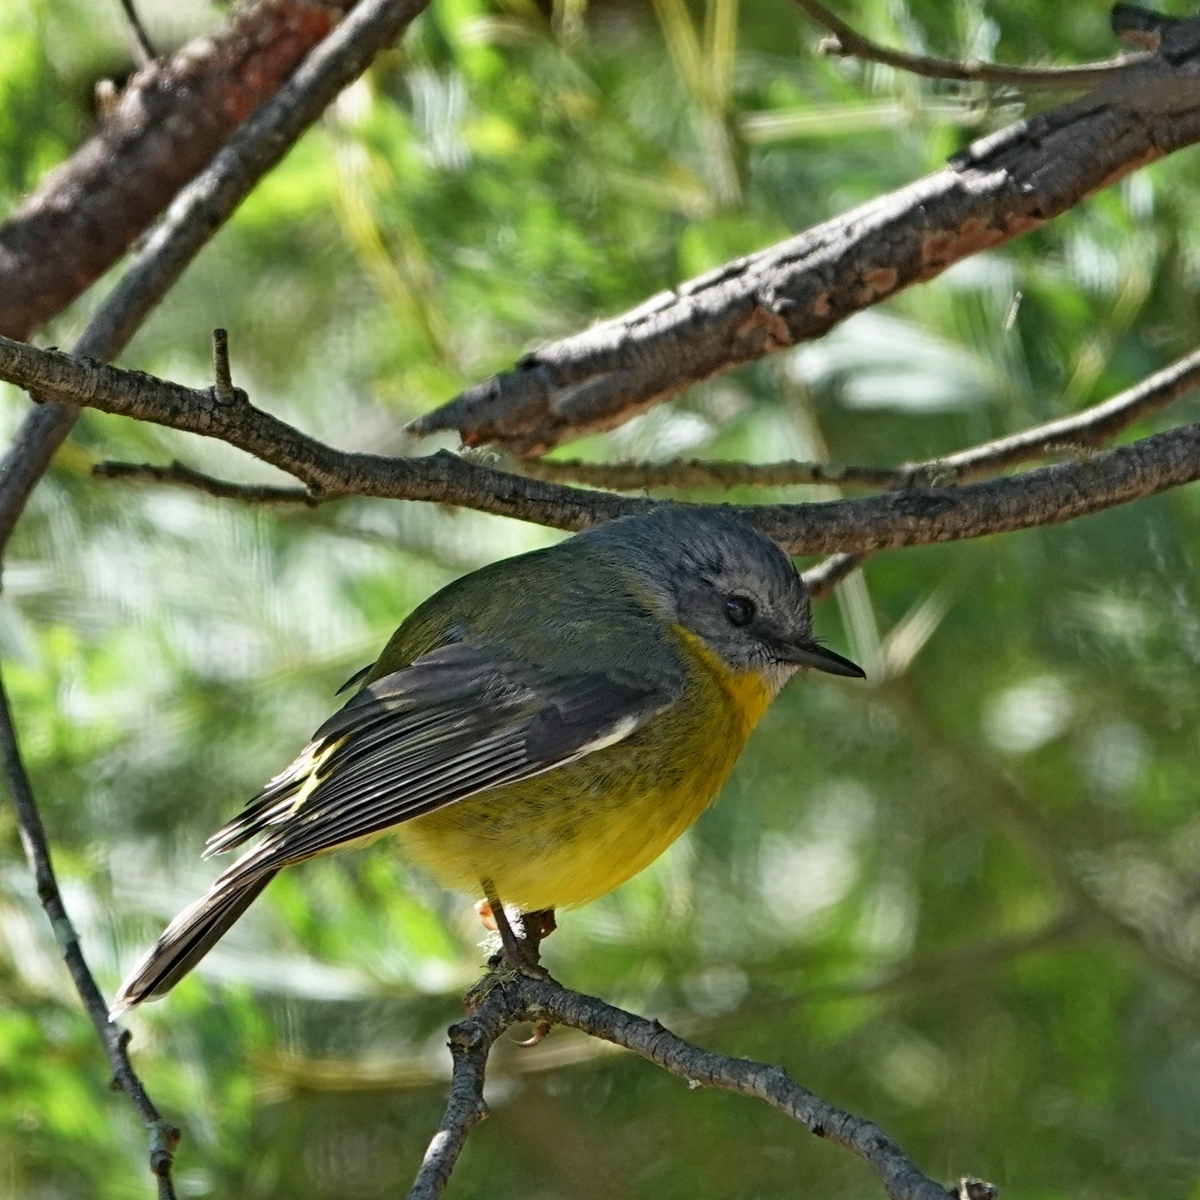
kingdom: Animalia
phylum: Chordata
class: Aves
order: Passeriformes
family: Petroicidae
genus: Eopsaltria
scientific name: Eopsaltria australis
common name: Eastern yellow robin
